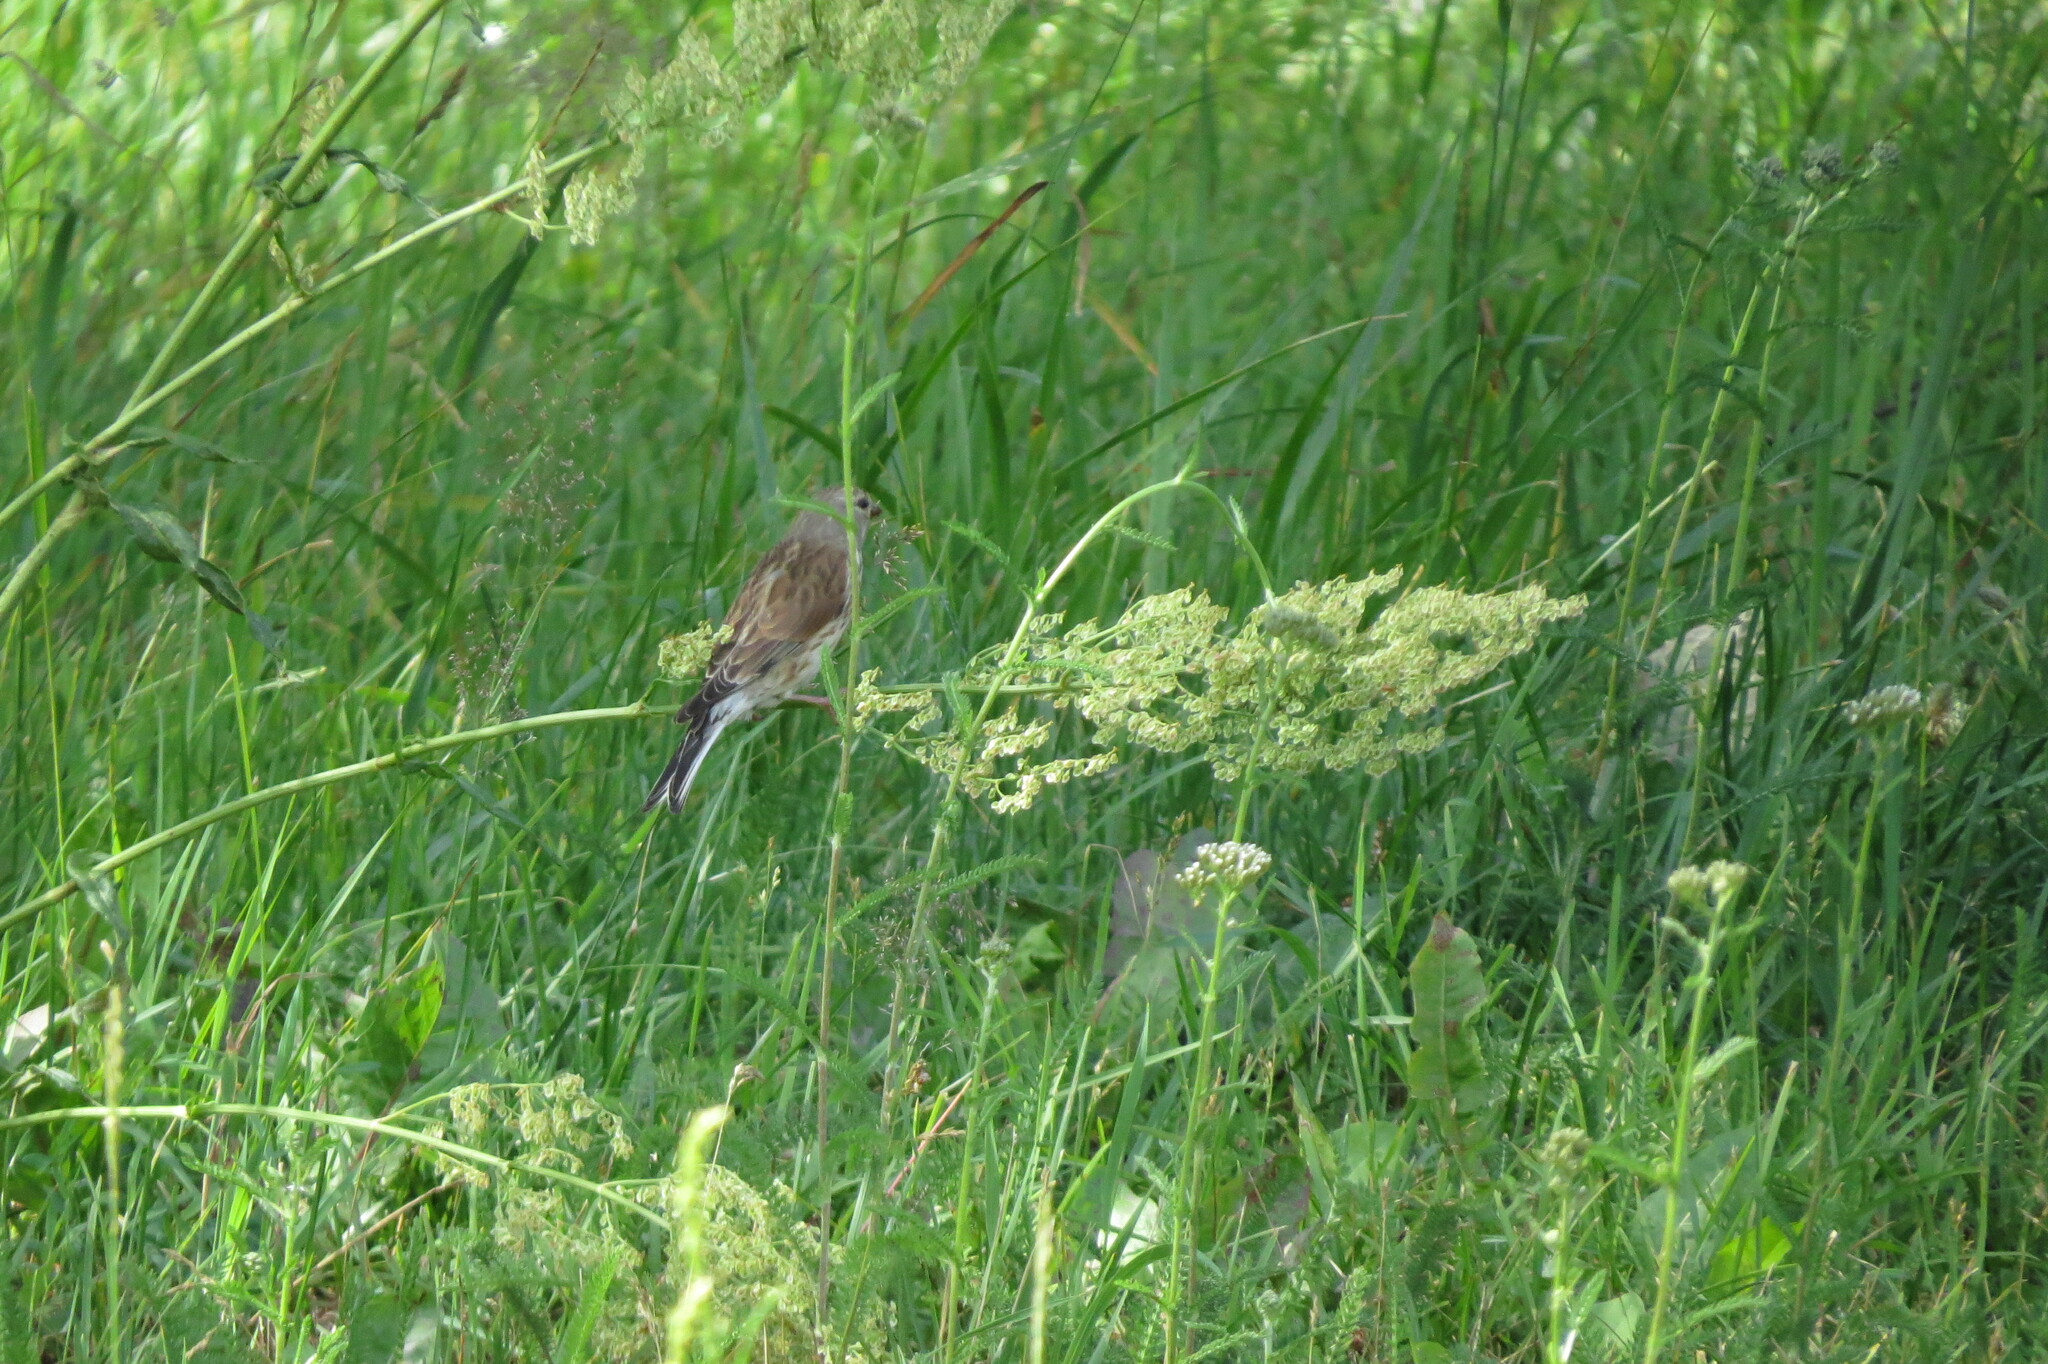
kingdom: Animalia
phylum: Chordata
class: Aves
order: Passeriformes
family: Fringillidae
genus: Linaria
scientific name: Linaria cannabina
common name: Common linnet
